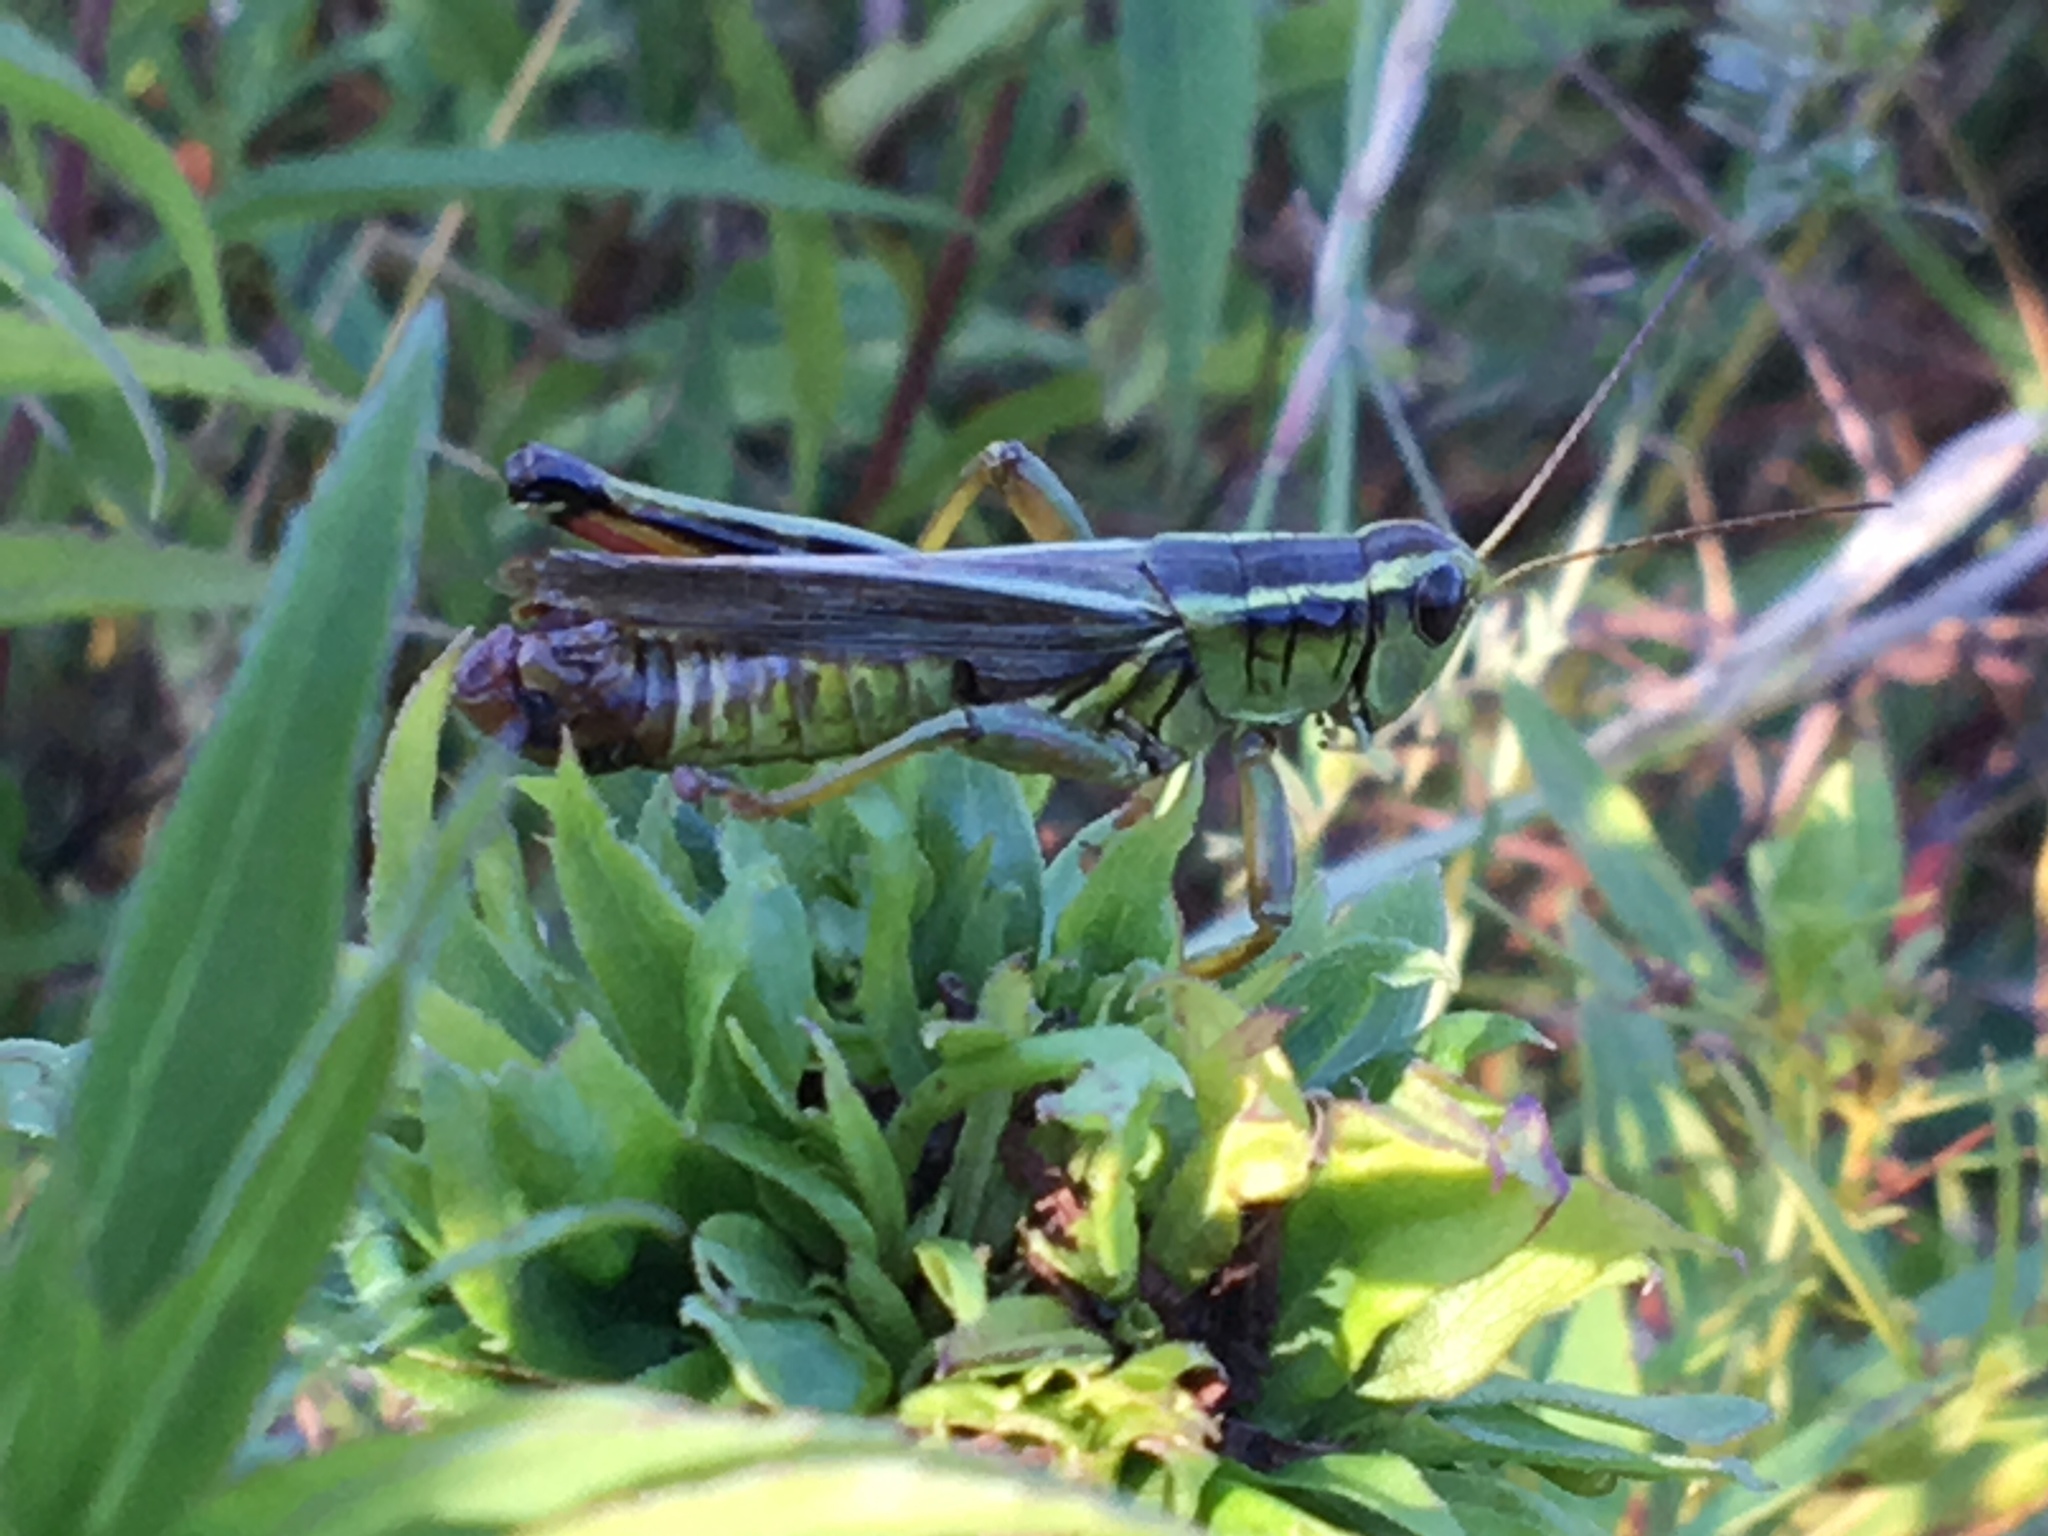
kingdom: Animalia
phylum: Arthropoda
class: Insecta
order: Orthoptera
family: Acrididae
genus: Melanoplus
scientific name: Melanoplus bivittatus
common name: Two-striped grasshopper
